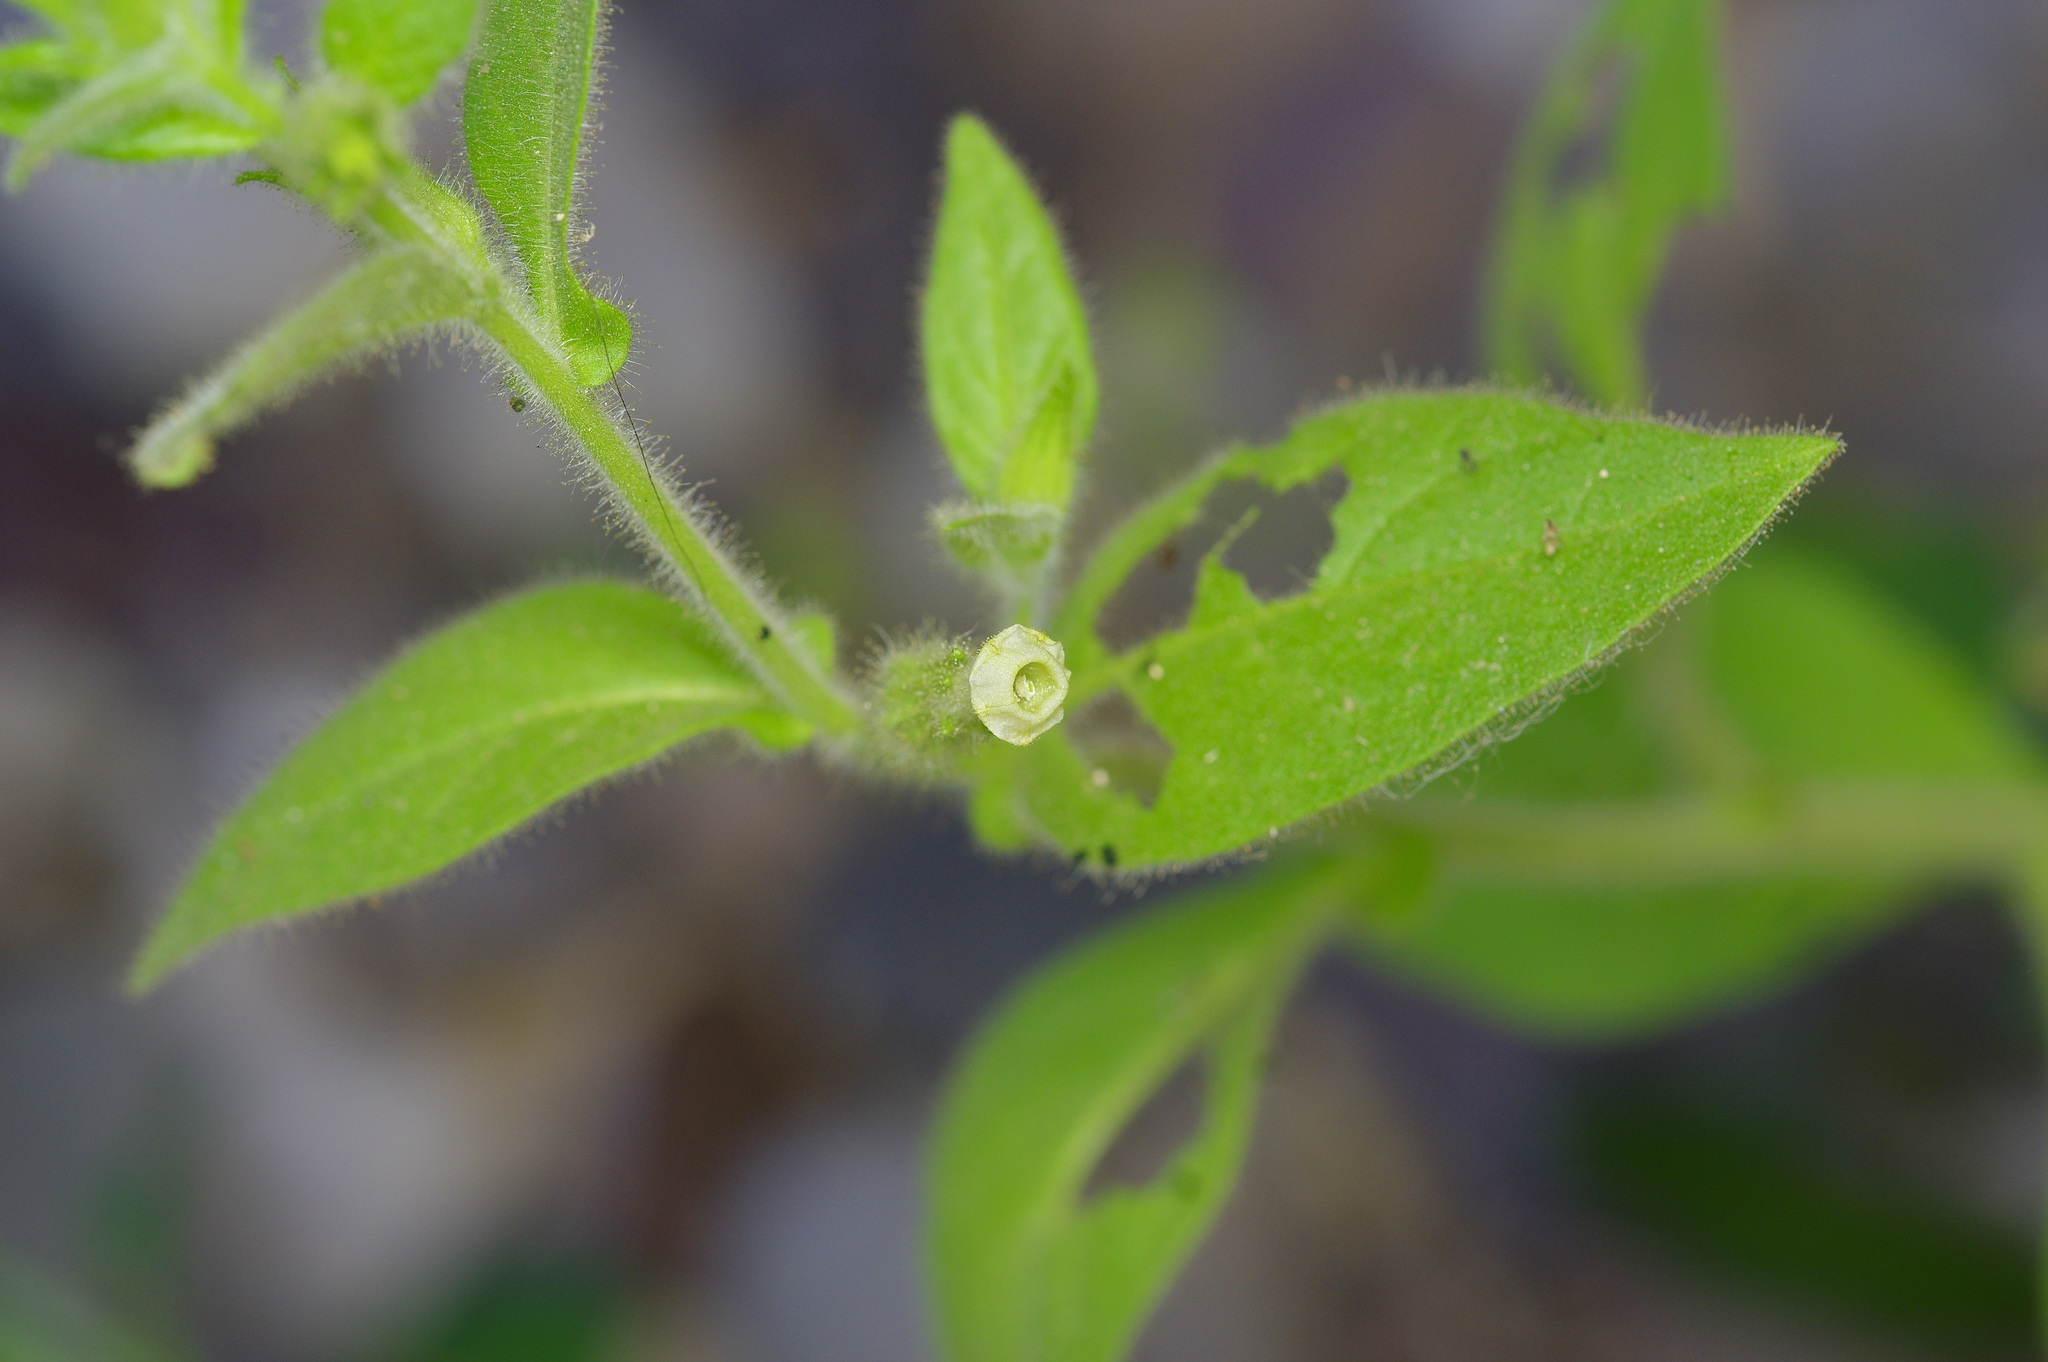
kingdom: Plantae
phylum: Tracheophyta
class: Magnoliopsida
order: Solanales
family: Solanaceae
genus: Nicotiana
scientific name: Nicotiana obtusifolia
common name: Desert tobacco
